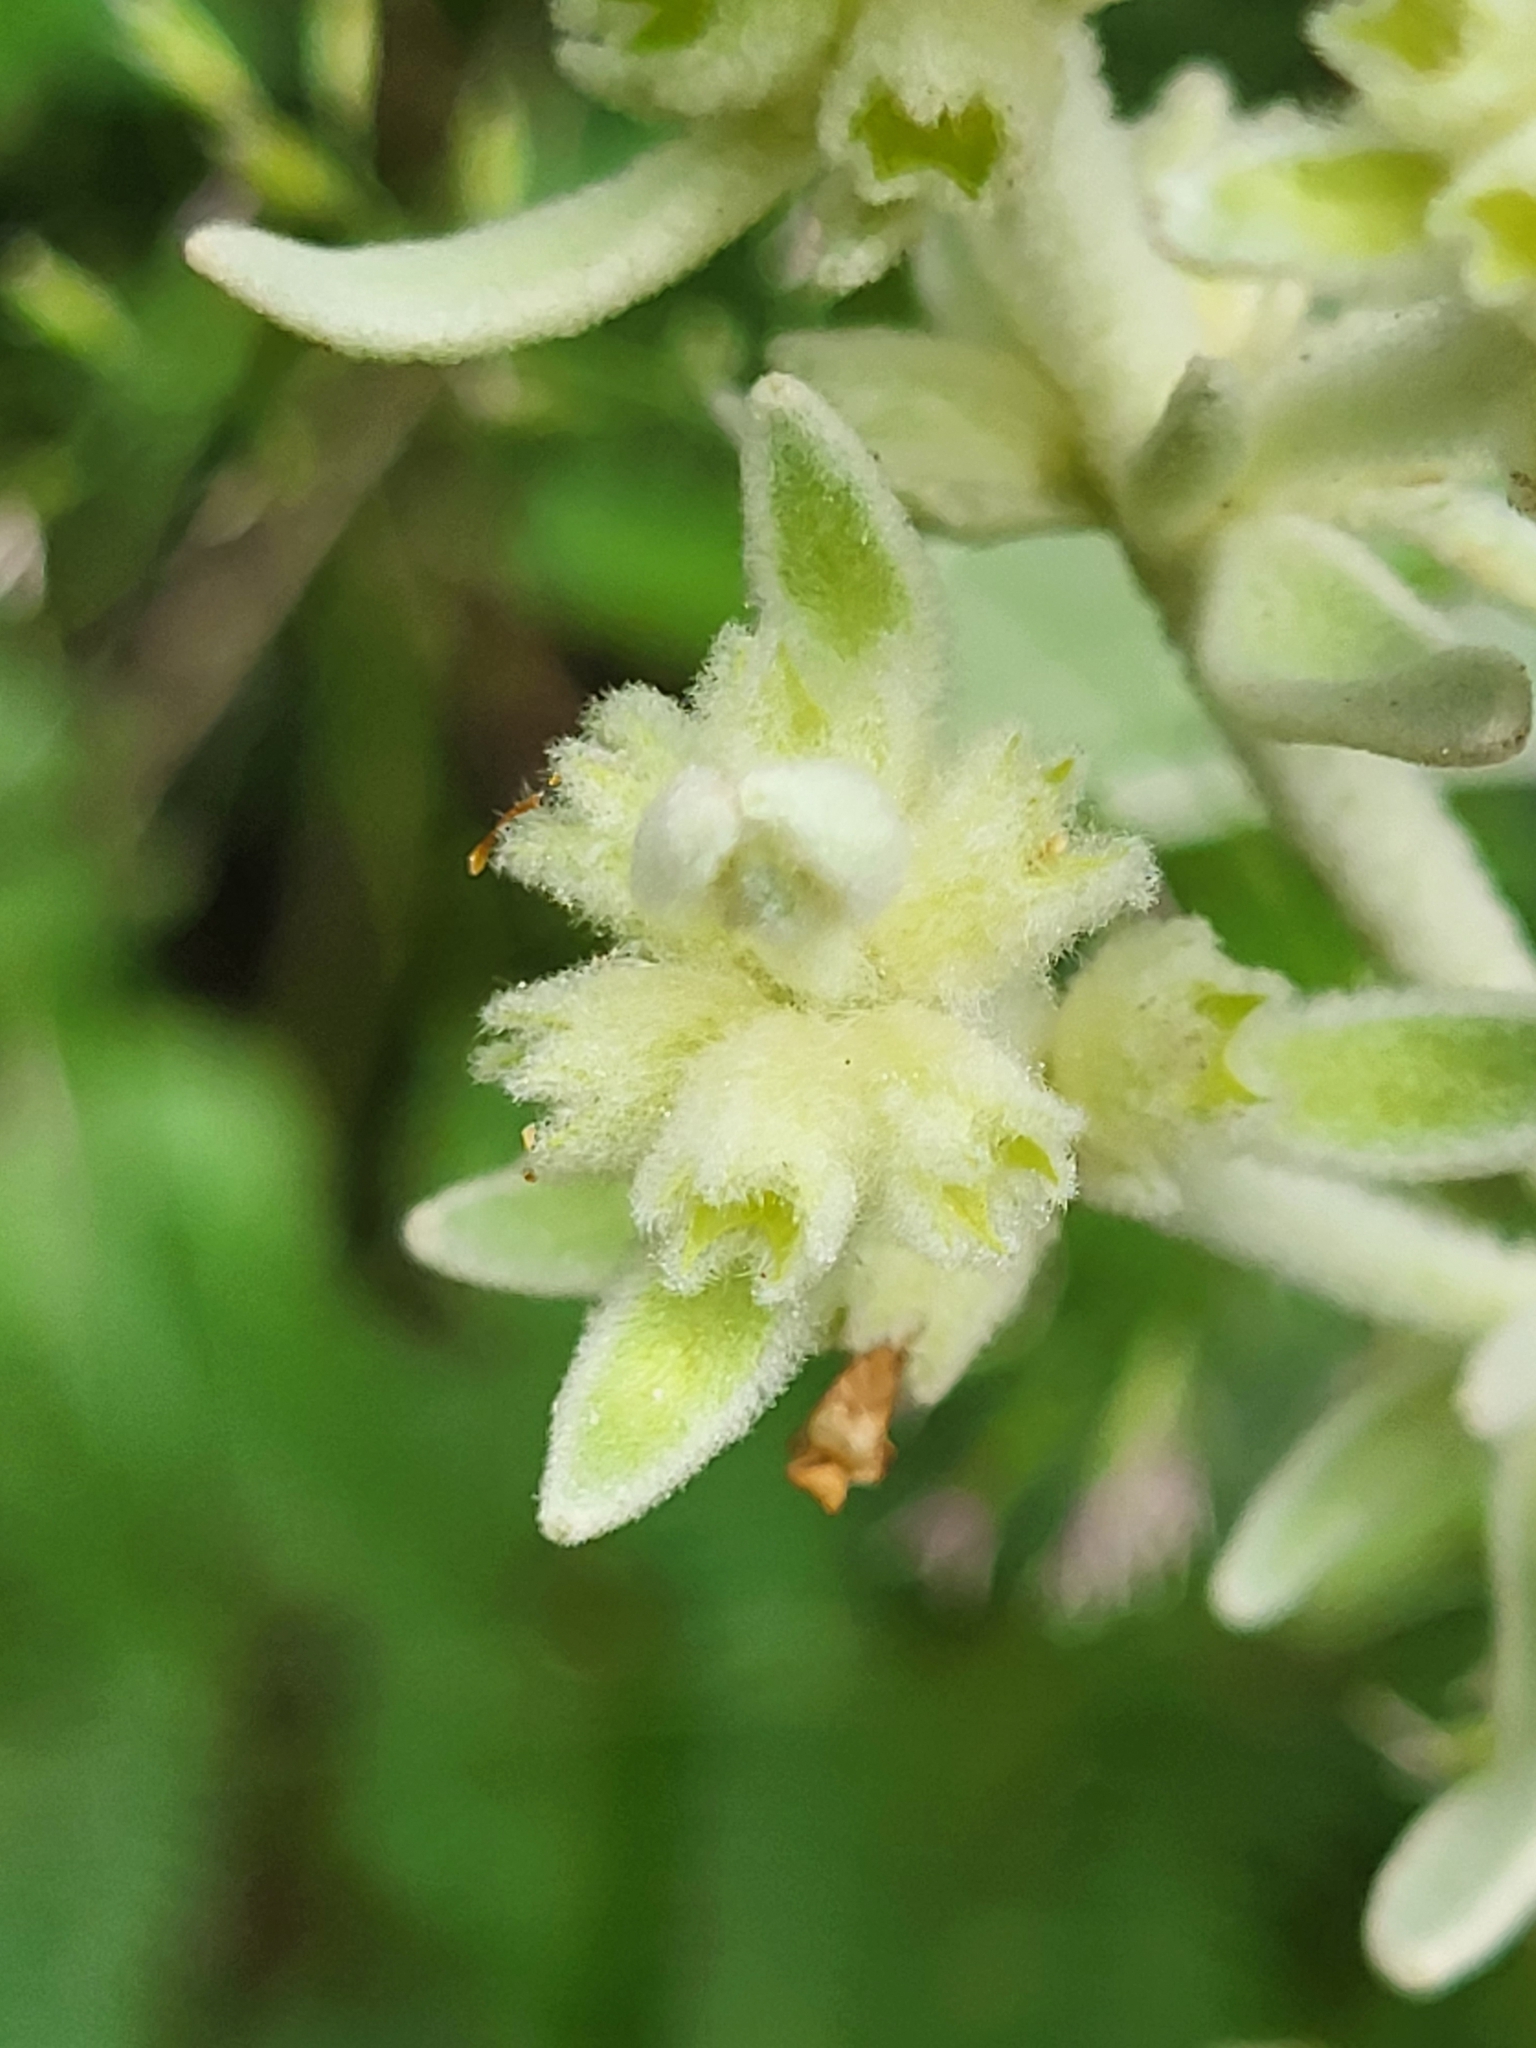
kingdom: Plantae
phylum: Tracheophyta
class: Magnoliopsida
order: Lamiales
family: Lamiaceae
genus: Sideritis
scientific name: Sideritis candicans
